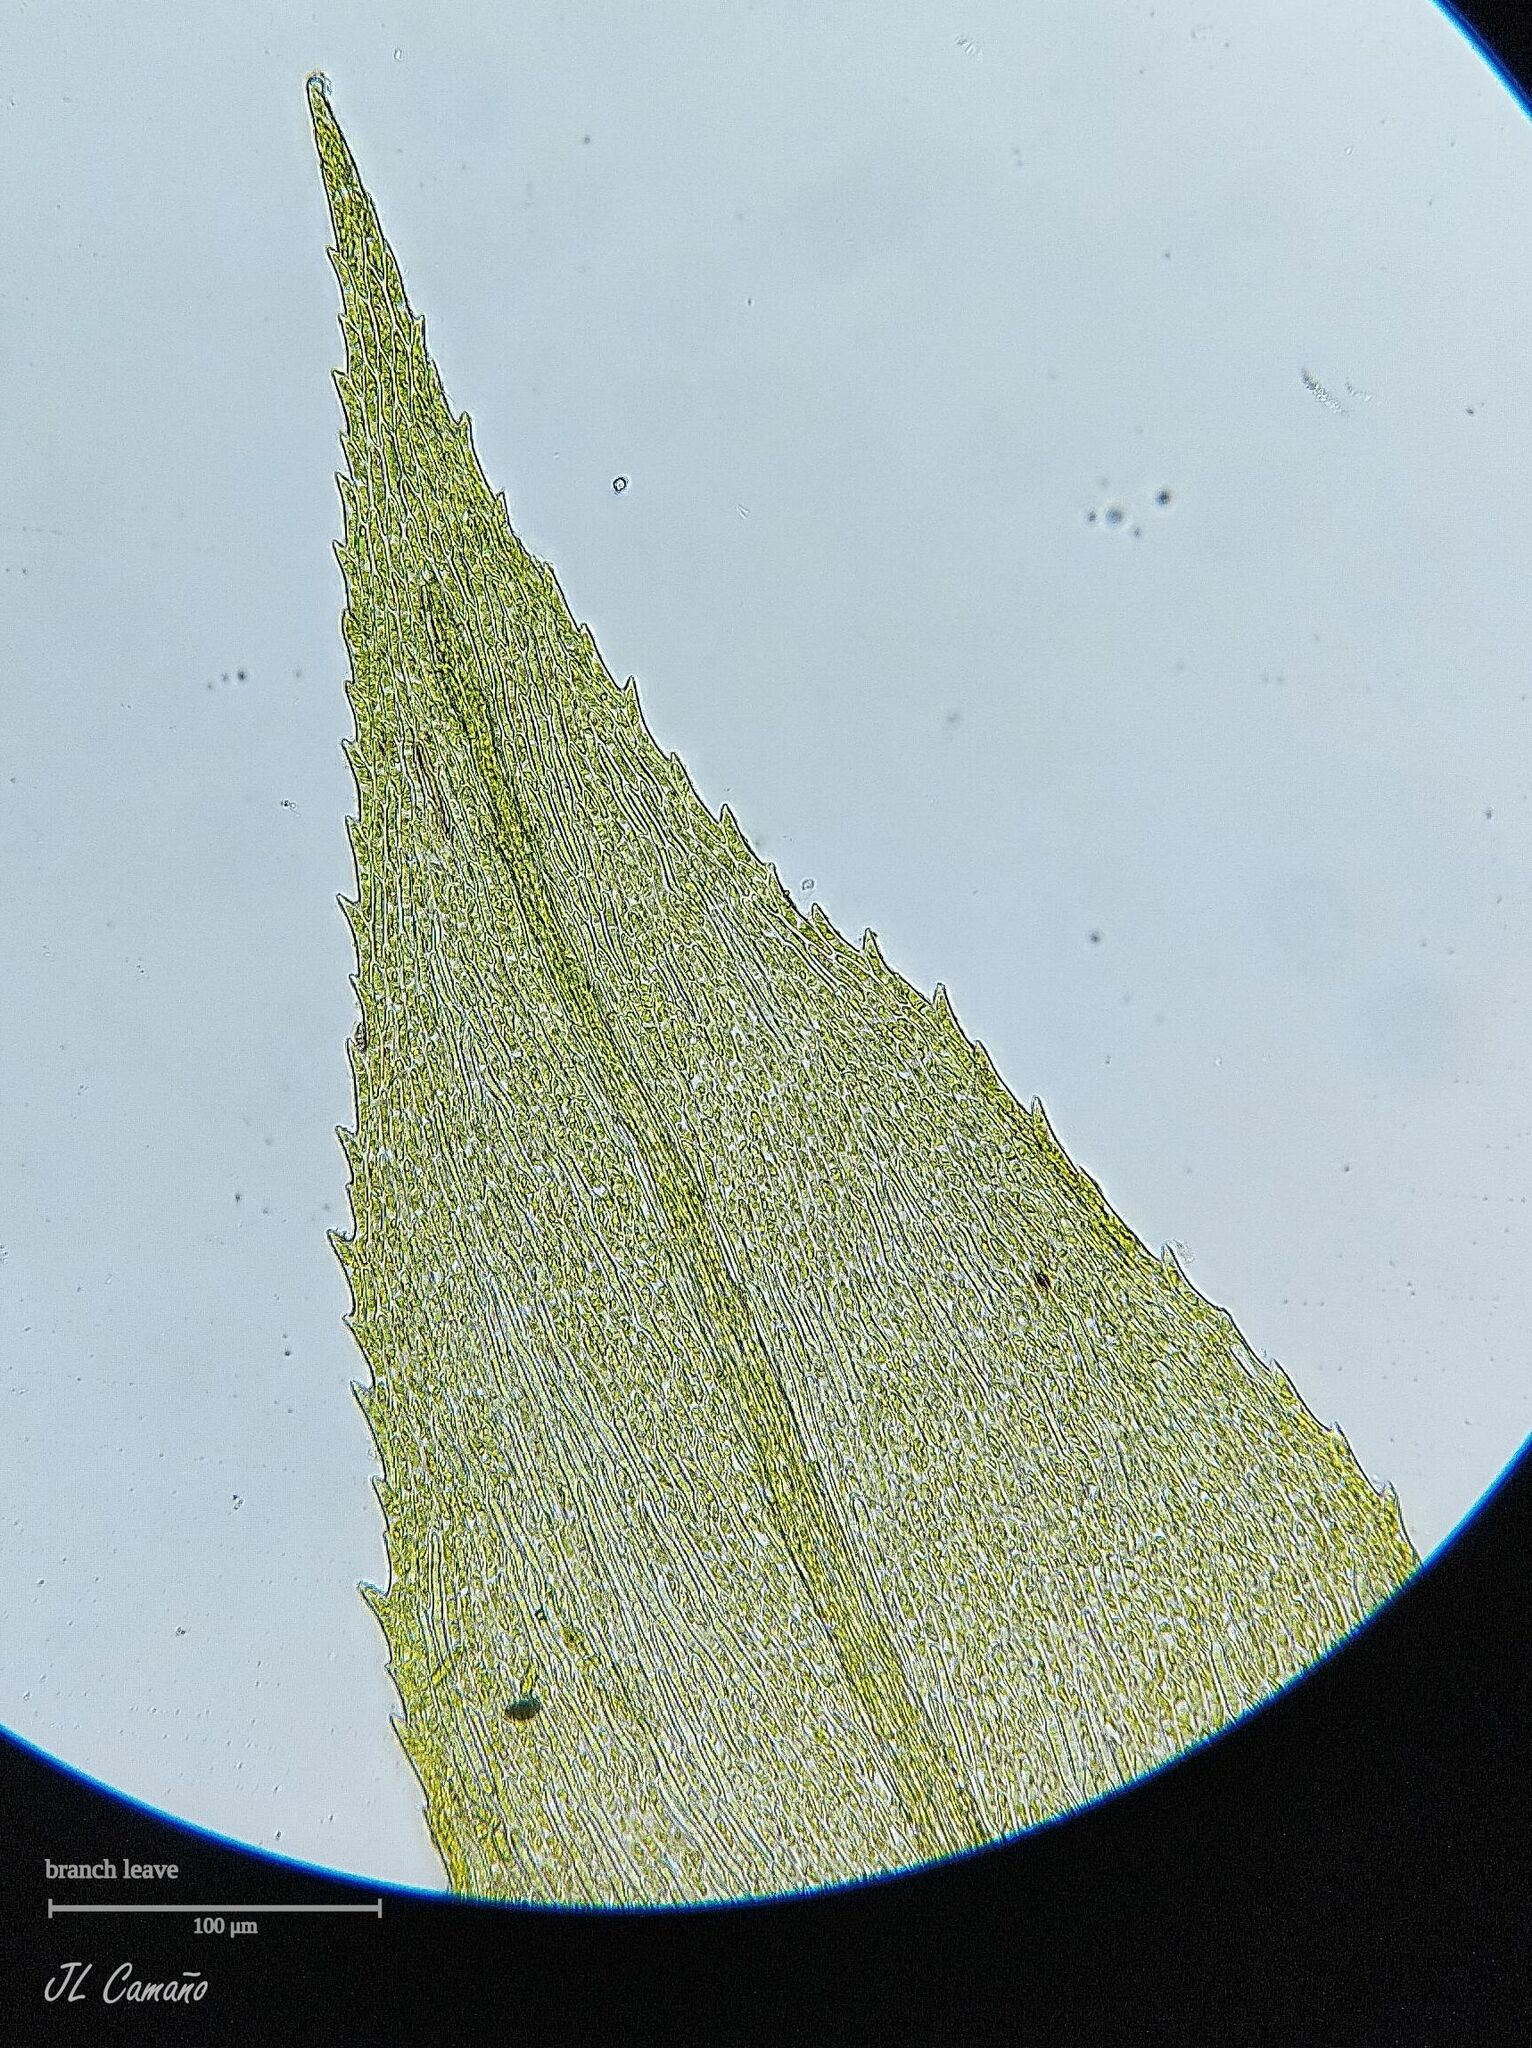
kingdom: Plantae
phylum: Bryophyta
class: Bryopsida
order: Hypnales
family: Brachytheciaceae
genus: Kindbergia
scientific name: Kindbergia praelonga
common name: Slender beaked moss
